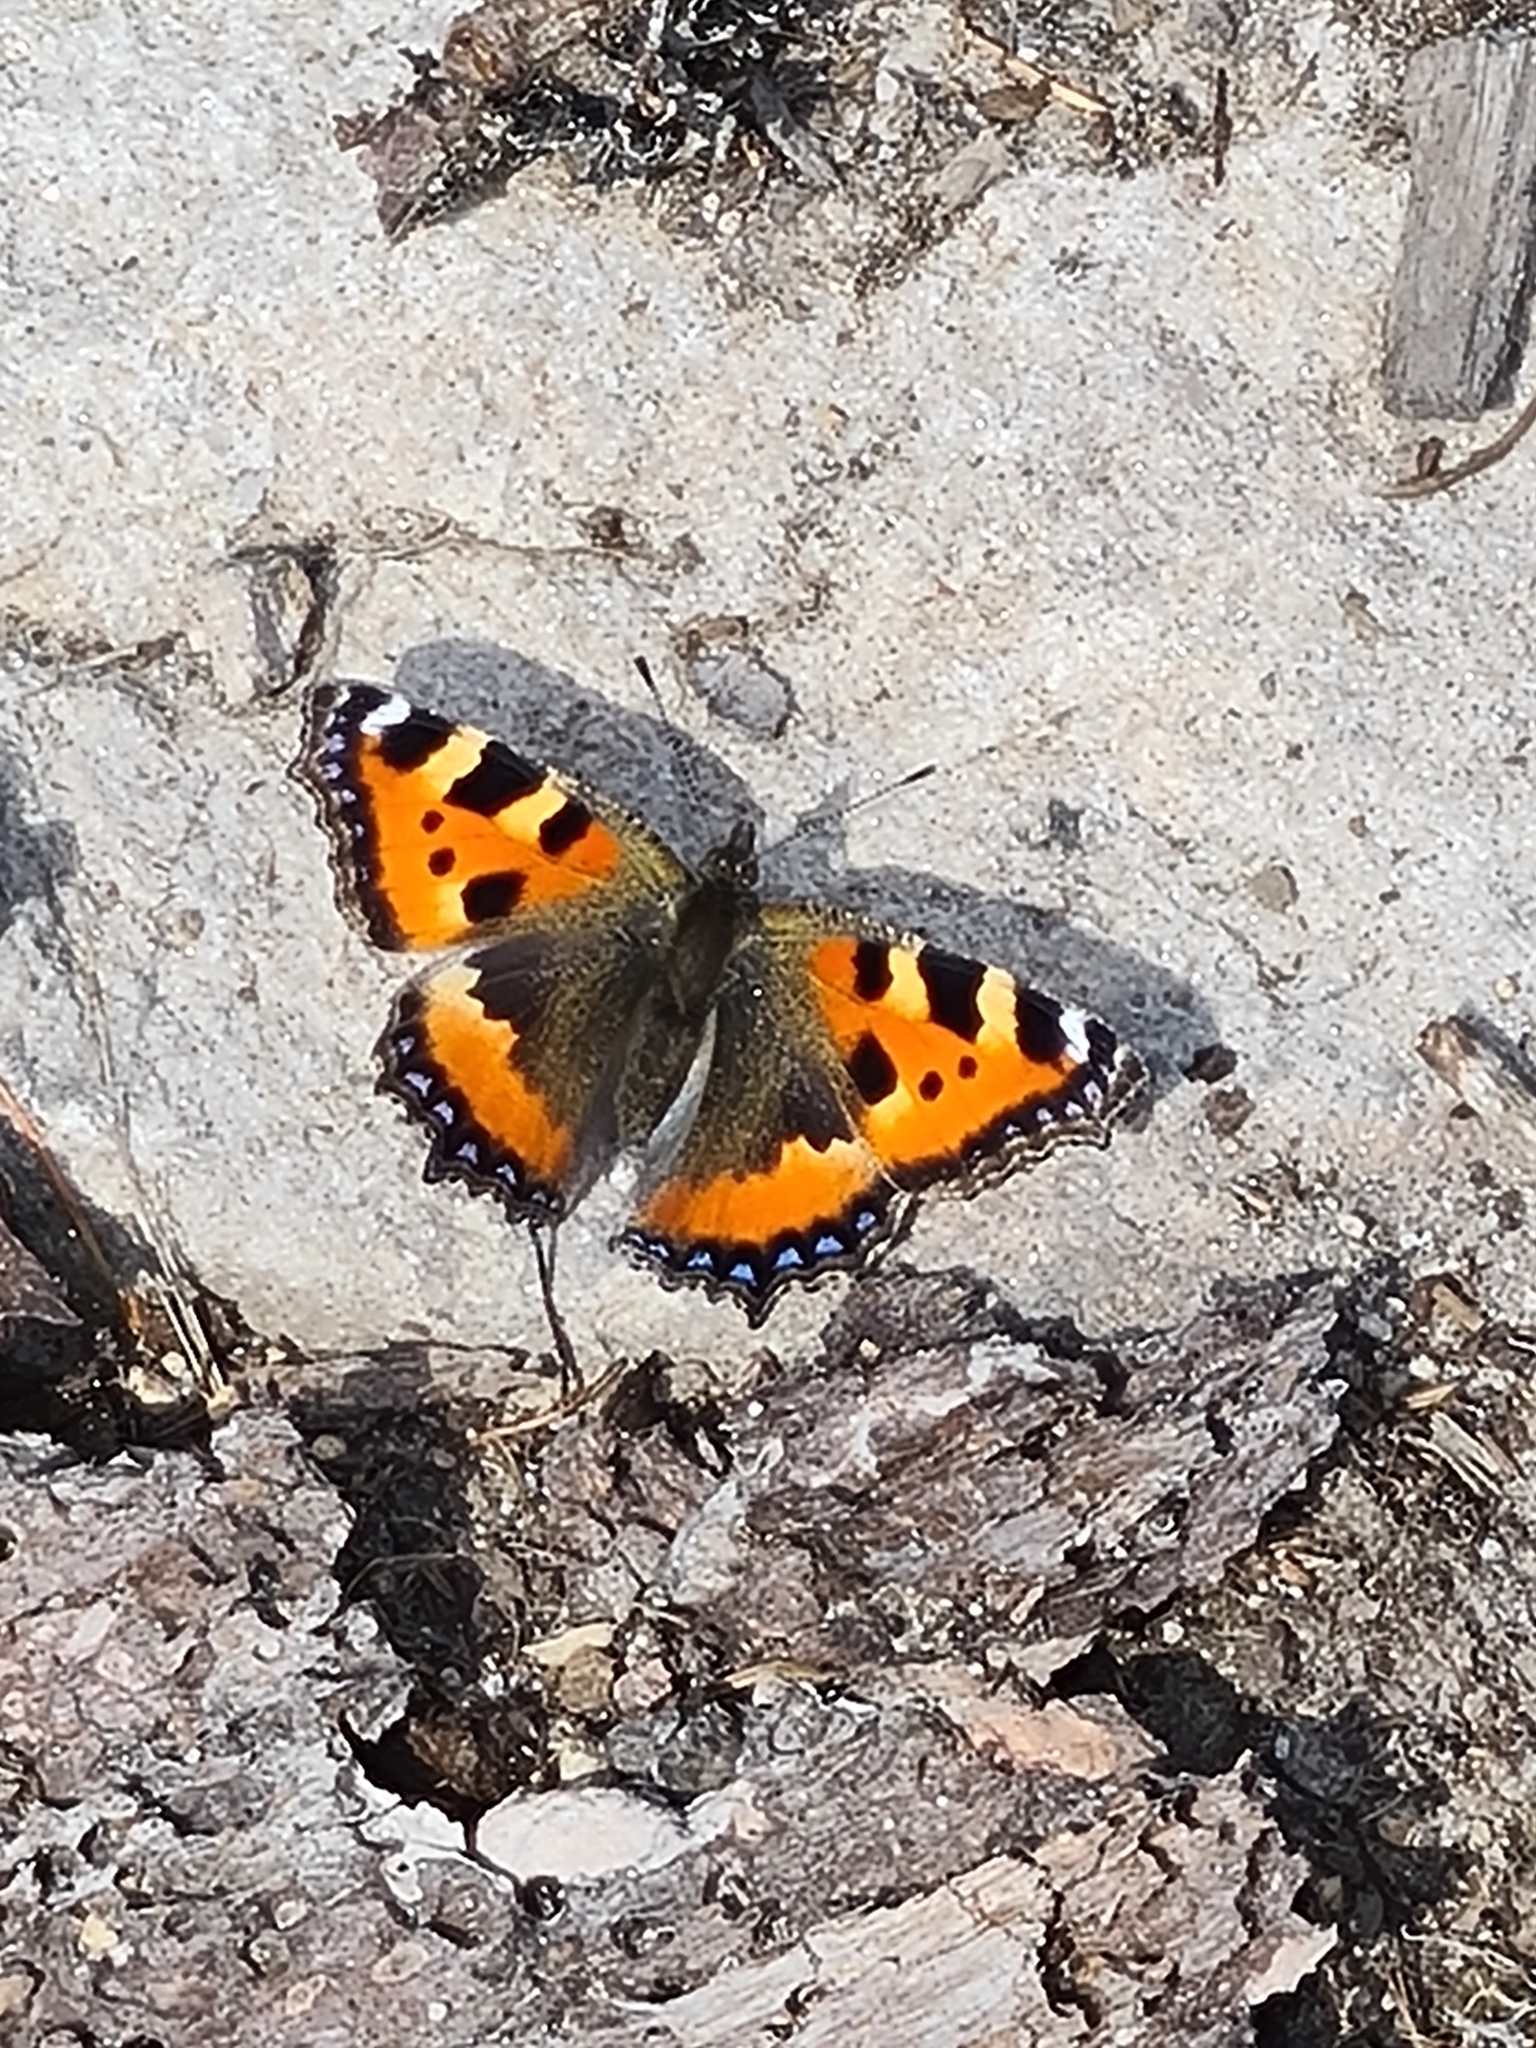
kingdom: Animalia
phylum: Arthropoda
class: Insecta
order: Lepidoptera
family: Nymphalidae
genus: Aglais
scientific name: Aglais urticae
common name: Small tortoiseshell
